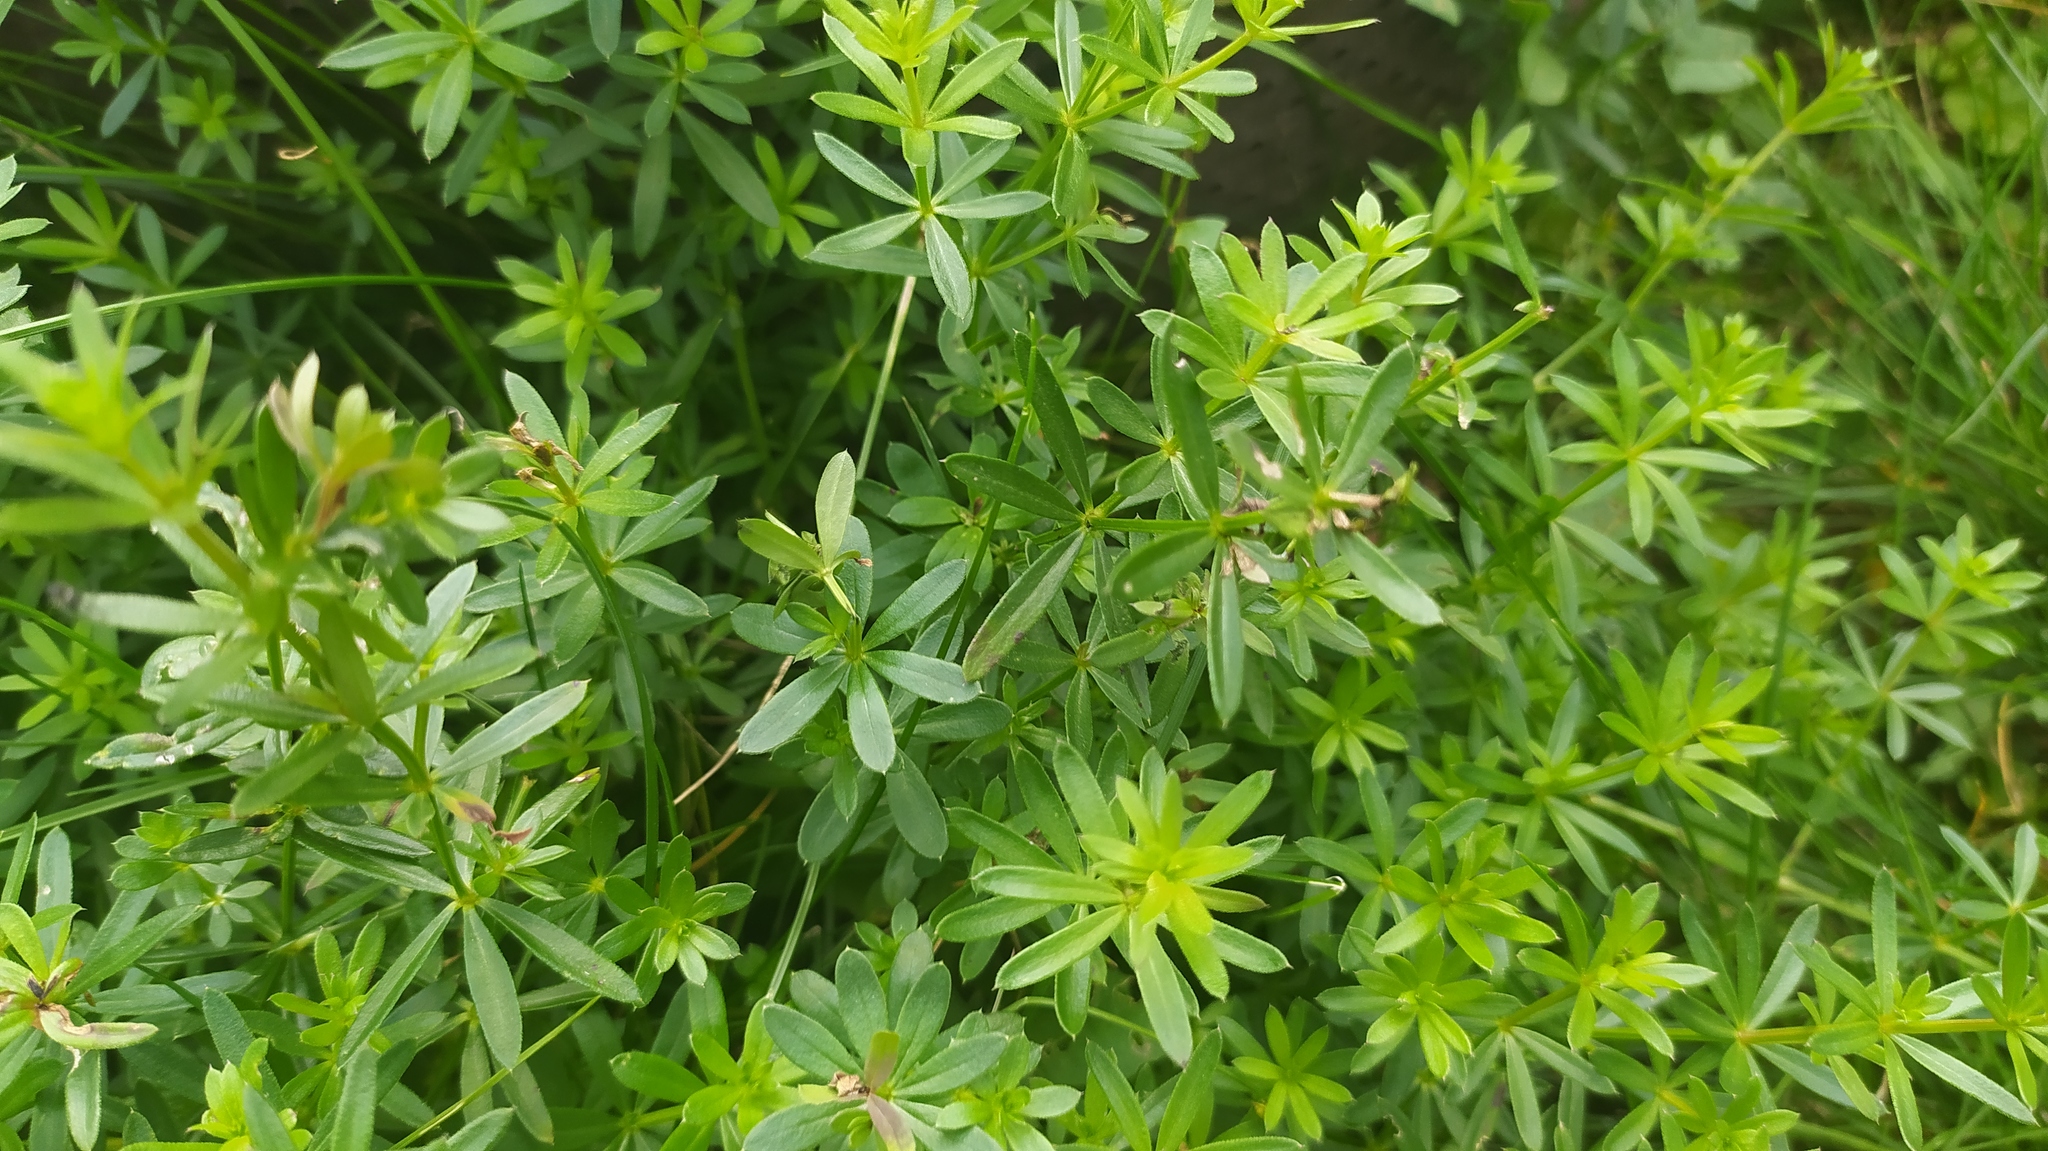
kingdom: Plantae
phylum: Tracheophyta
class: Magnoliopsida
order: Gentianales
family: Rubiaceae
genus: Galium
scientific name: Galium mollugo
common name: Hedge bedstraw
